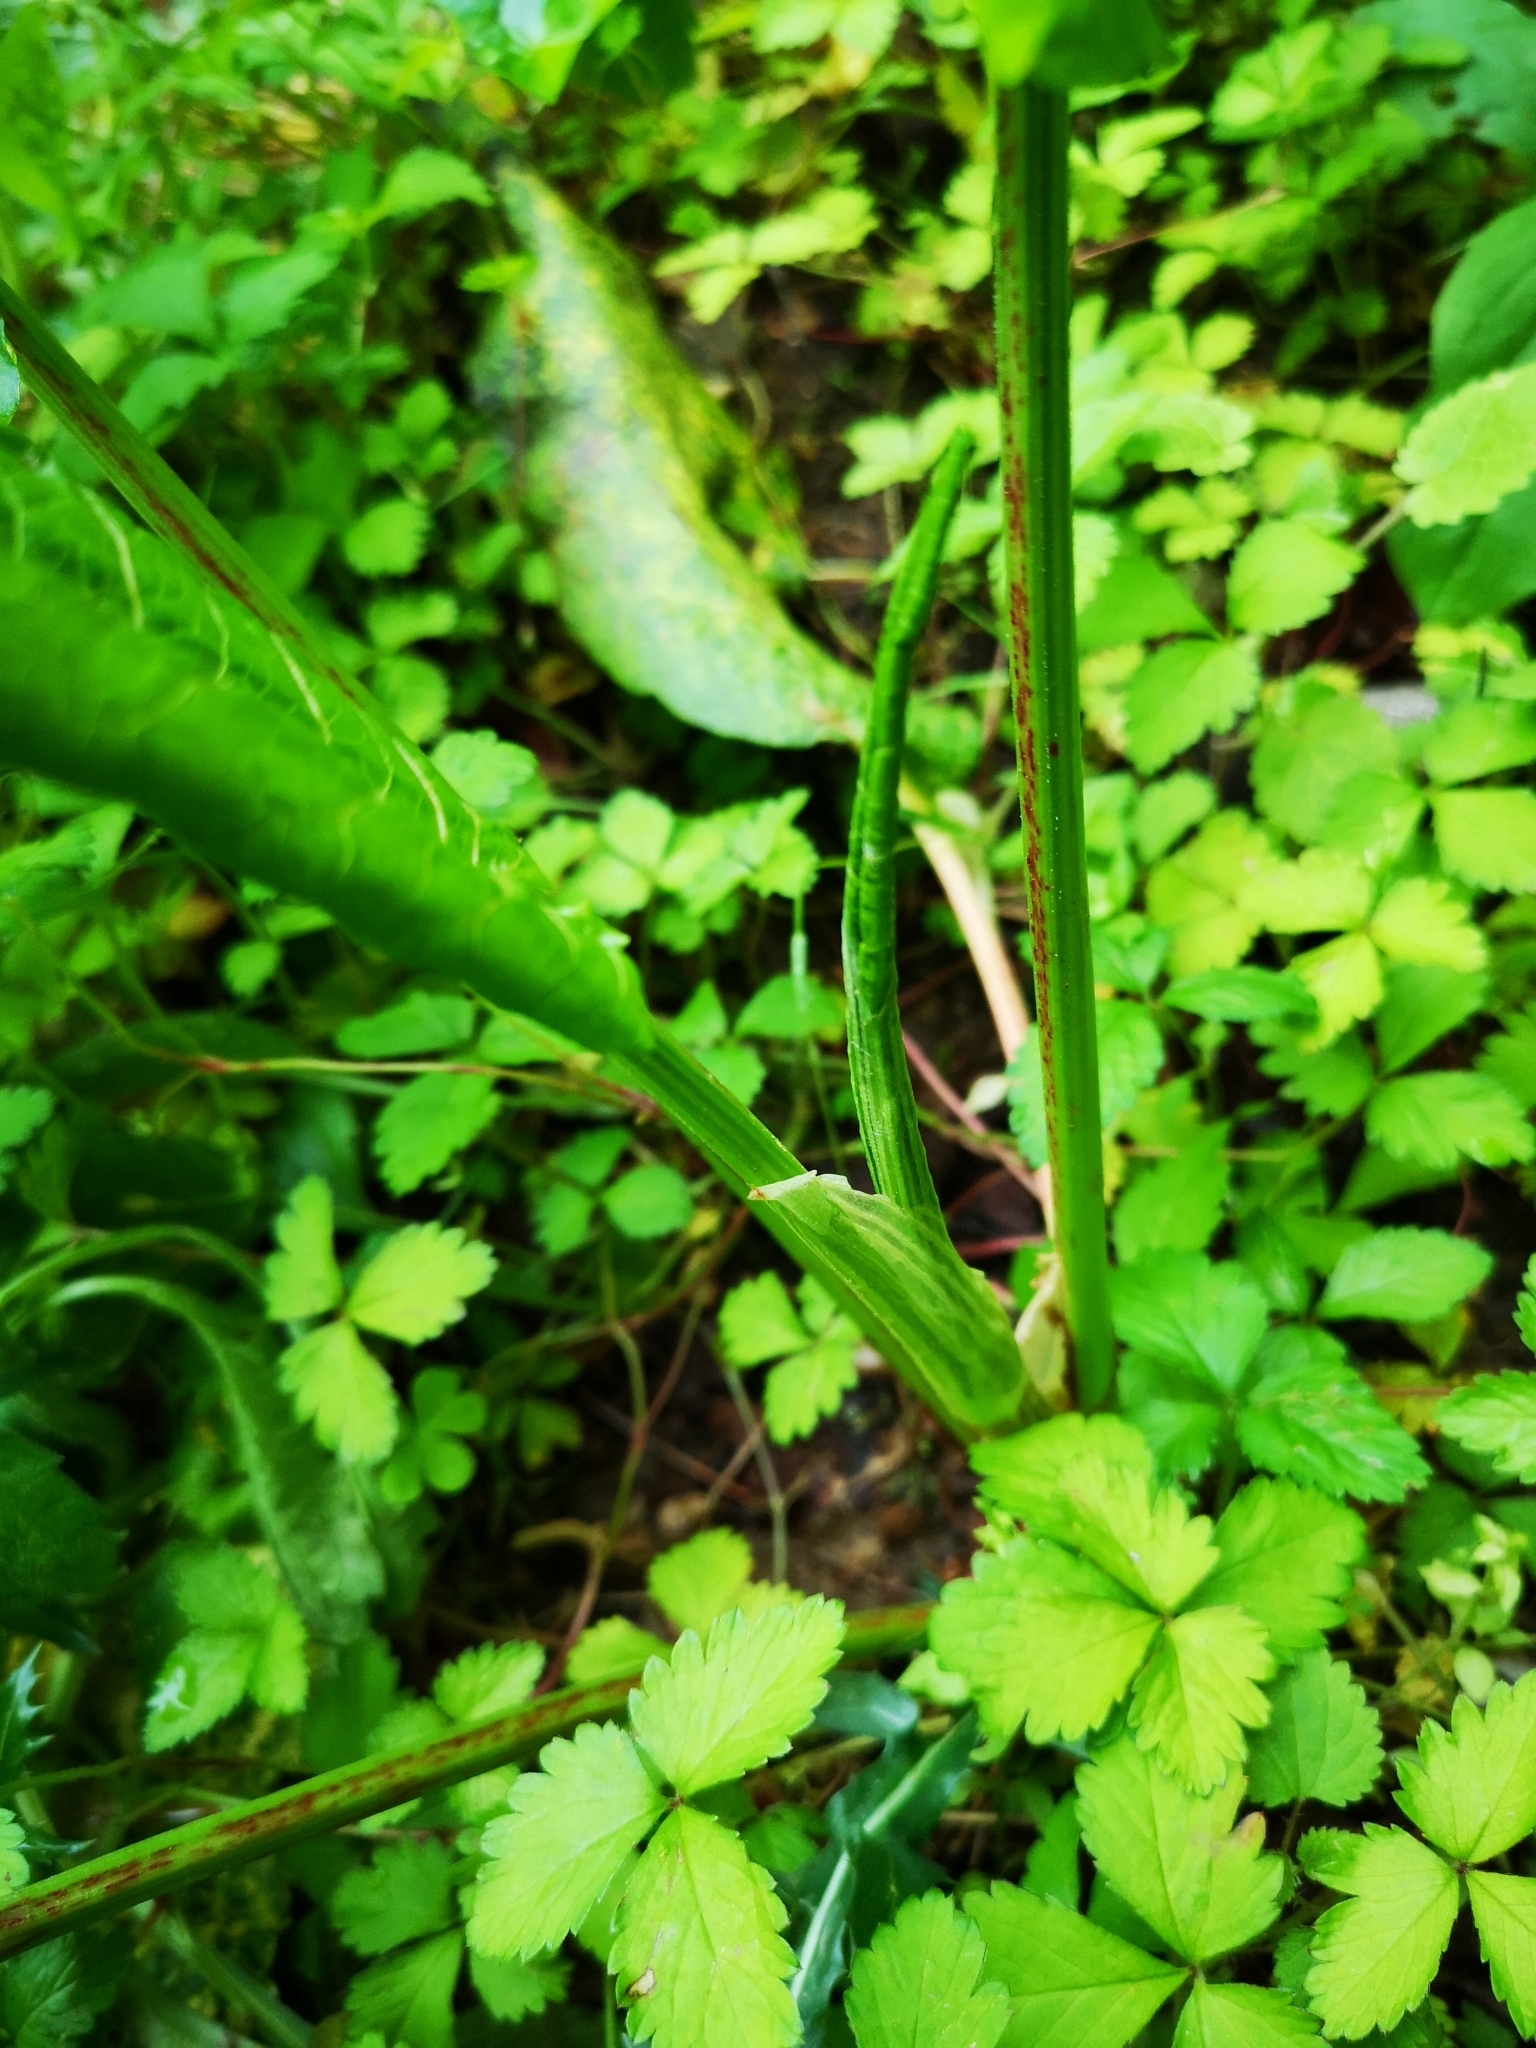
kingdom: Plantae
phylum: Tracheophyta
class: Magnoliopsida
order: Caryophyllales
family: Polygonaceae
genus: Rumex
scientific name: Rumex obtusifolius
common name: Bitter dock
